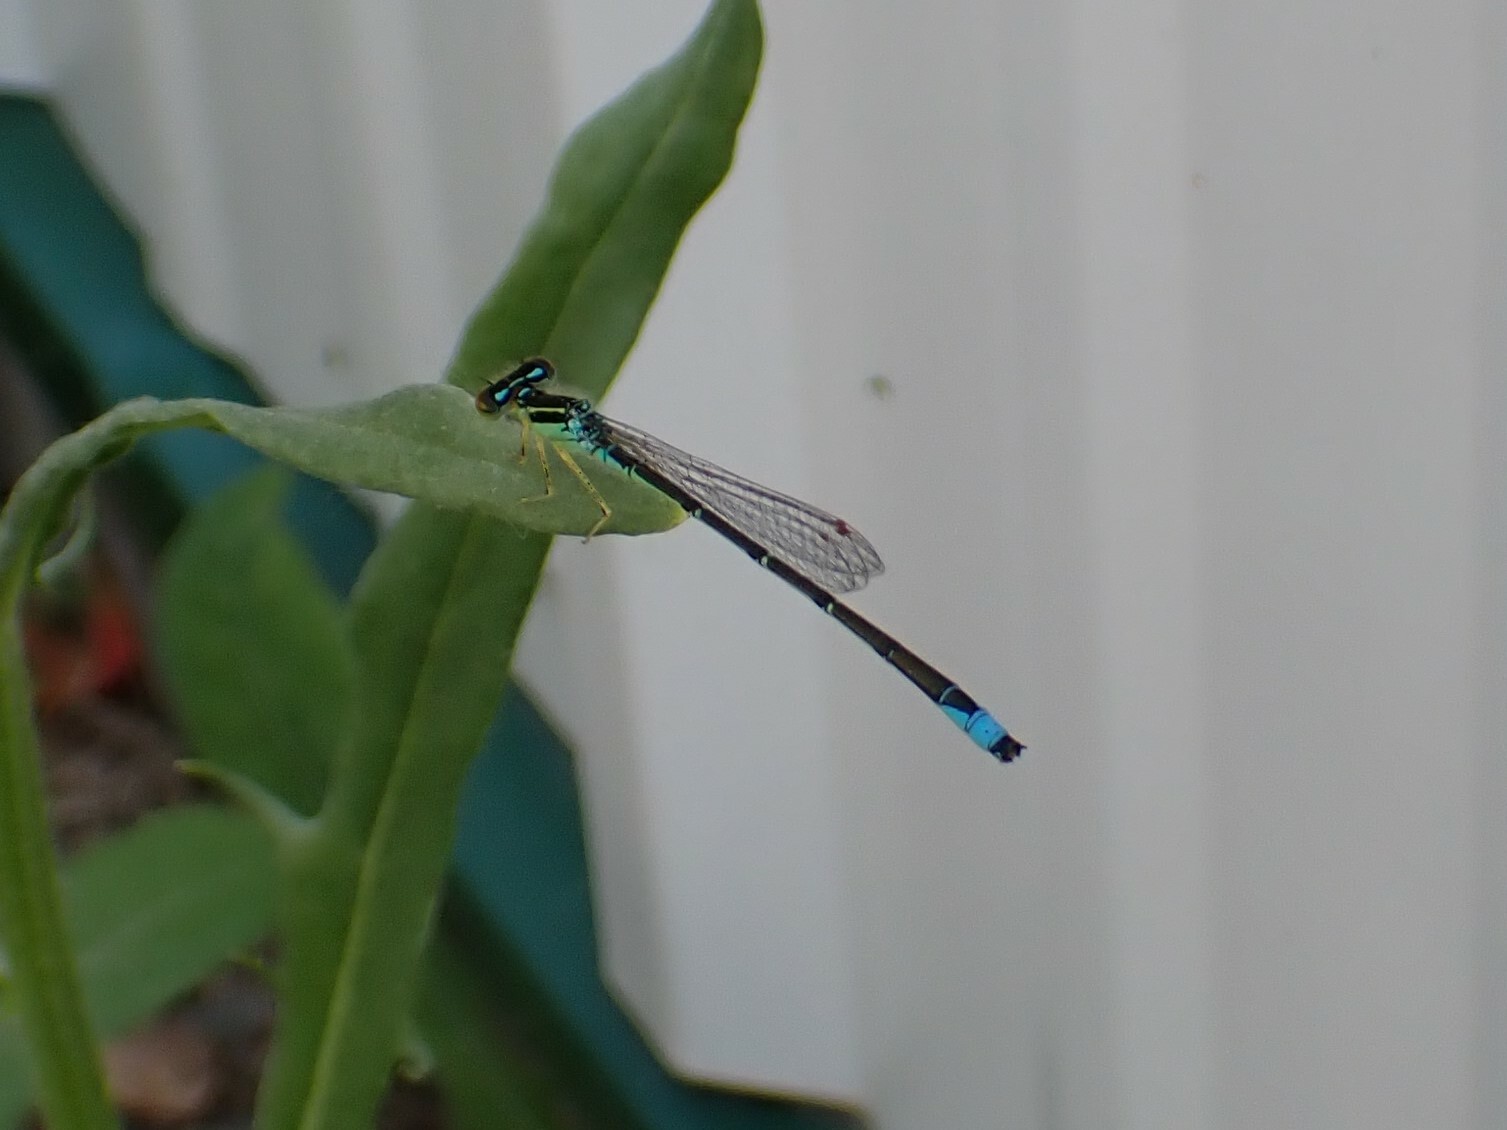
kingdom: Animalia
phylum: Arthropoda
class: Insecta
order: Odonata
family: Coenagrionidae
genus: Enallagma
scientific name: Enallagma antennatum
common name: Rainbow bluet
